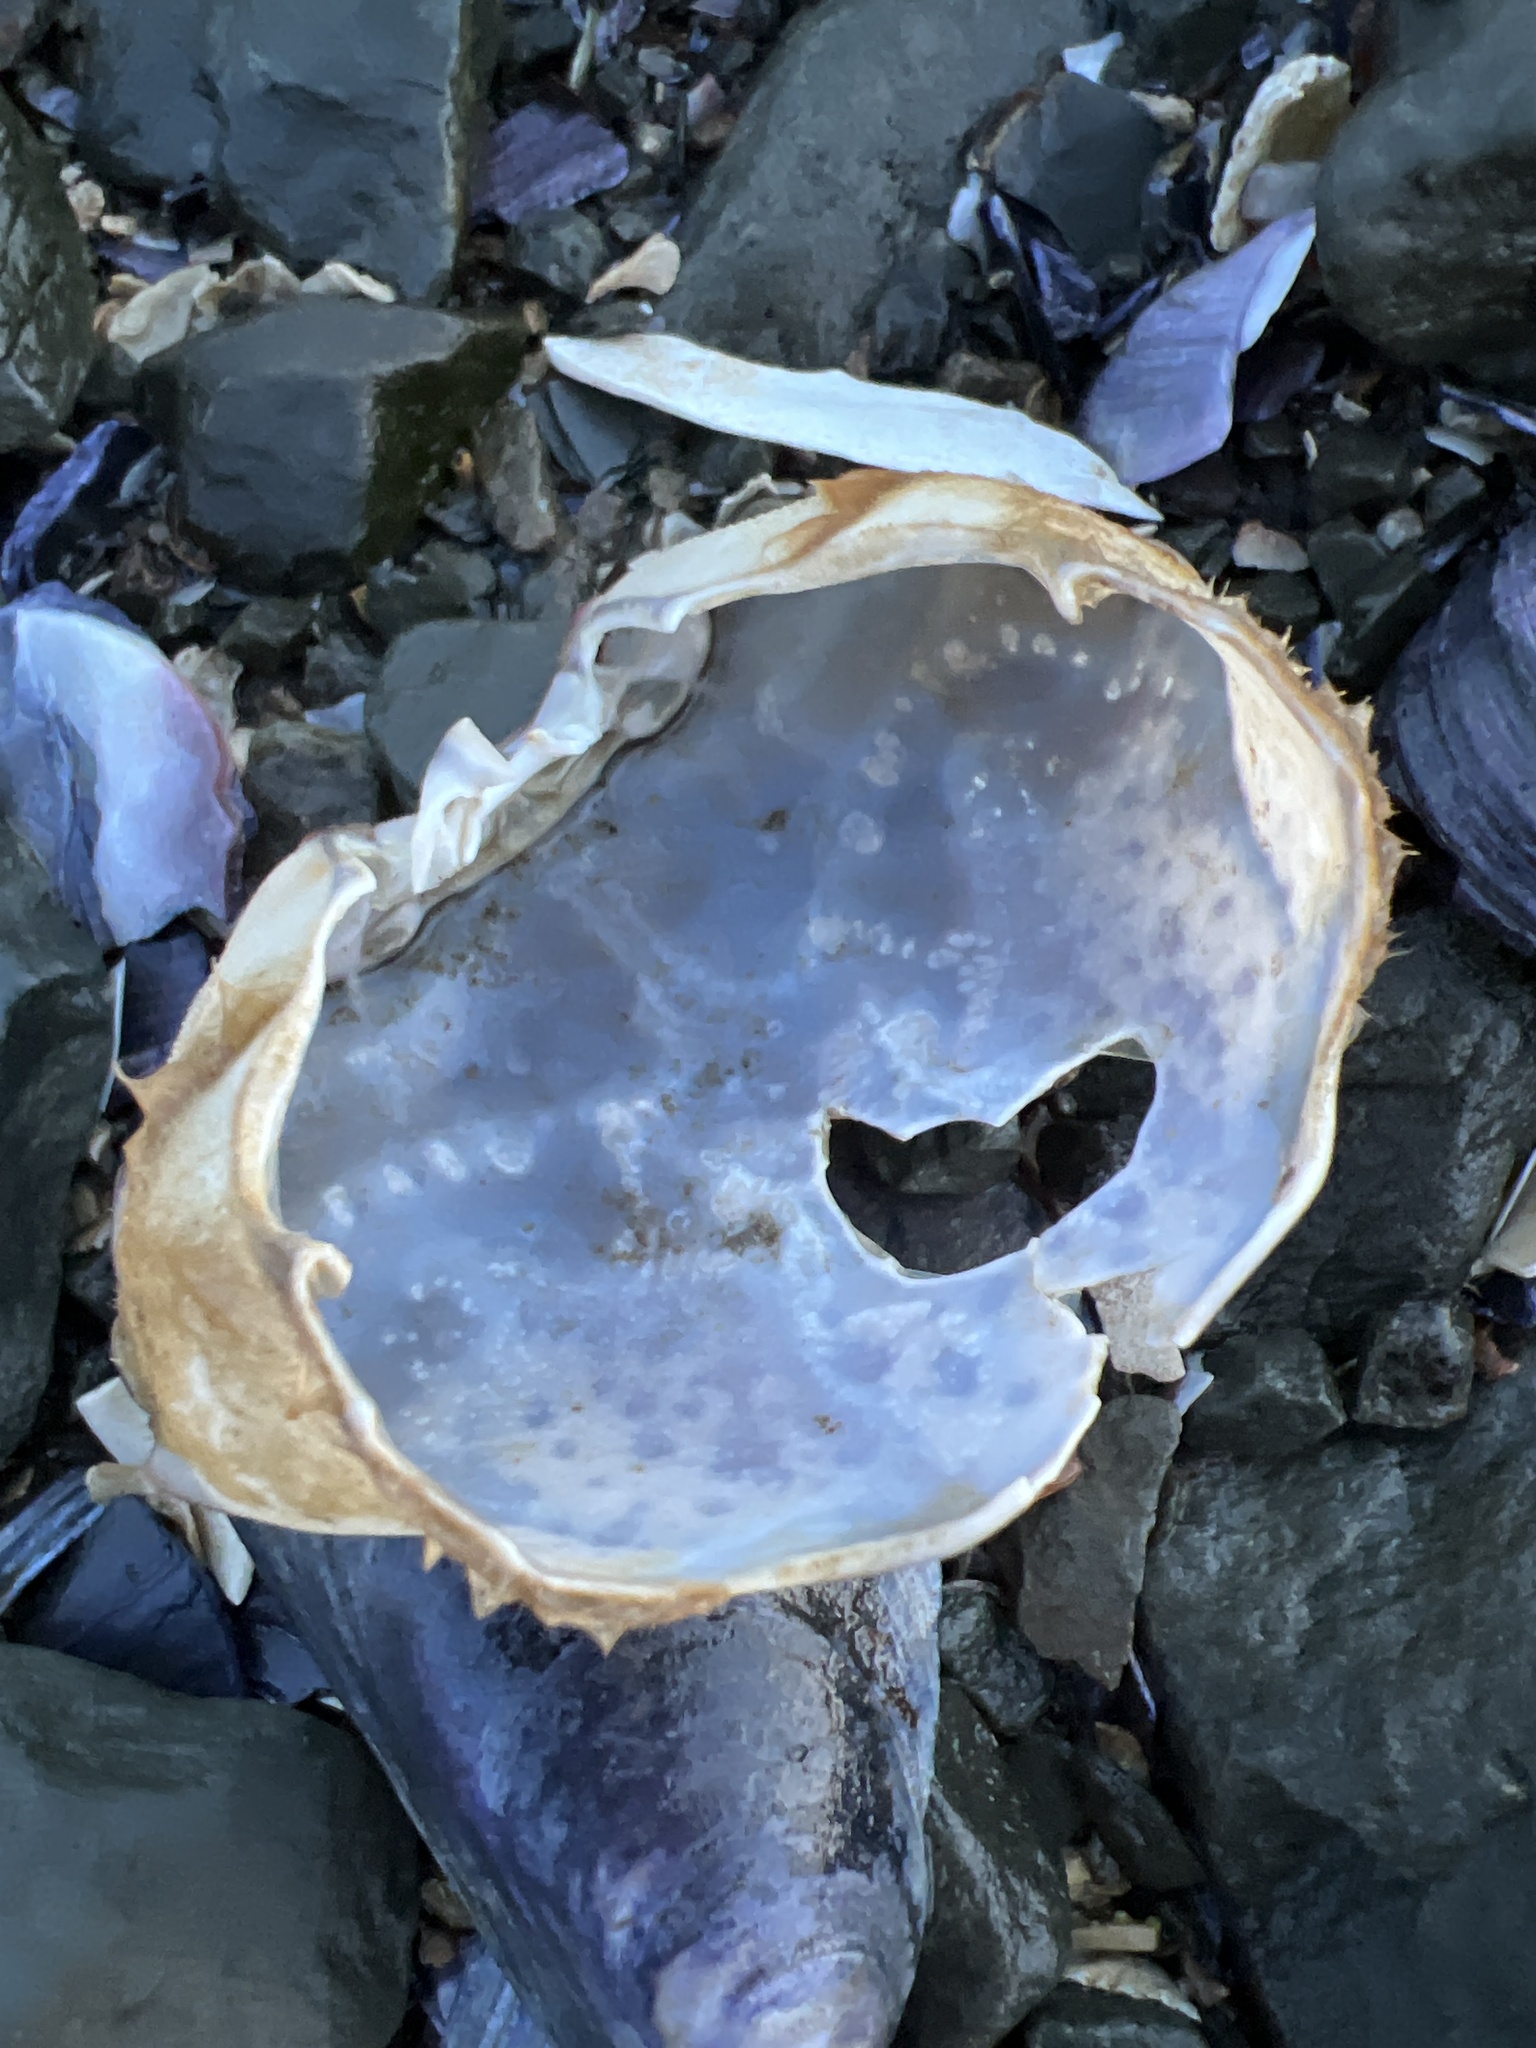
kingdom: Animalia
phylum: Arthropoda
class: Malacostraca
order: Decapoda
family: Carcinidae
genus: Carcinus
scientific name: Carcinus maenas
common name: European green crab
